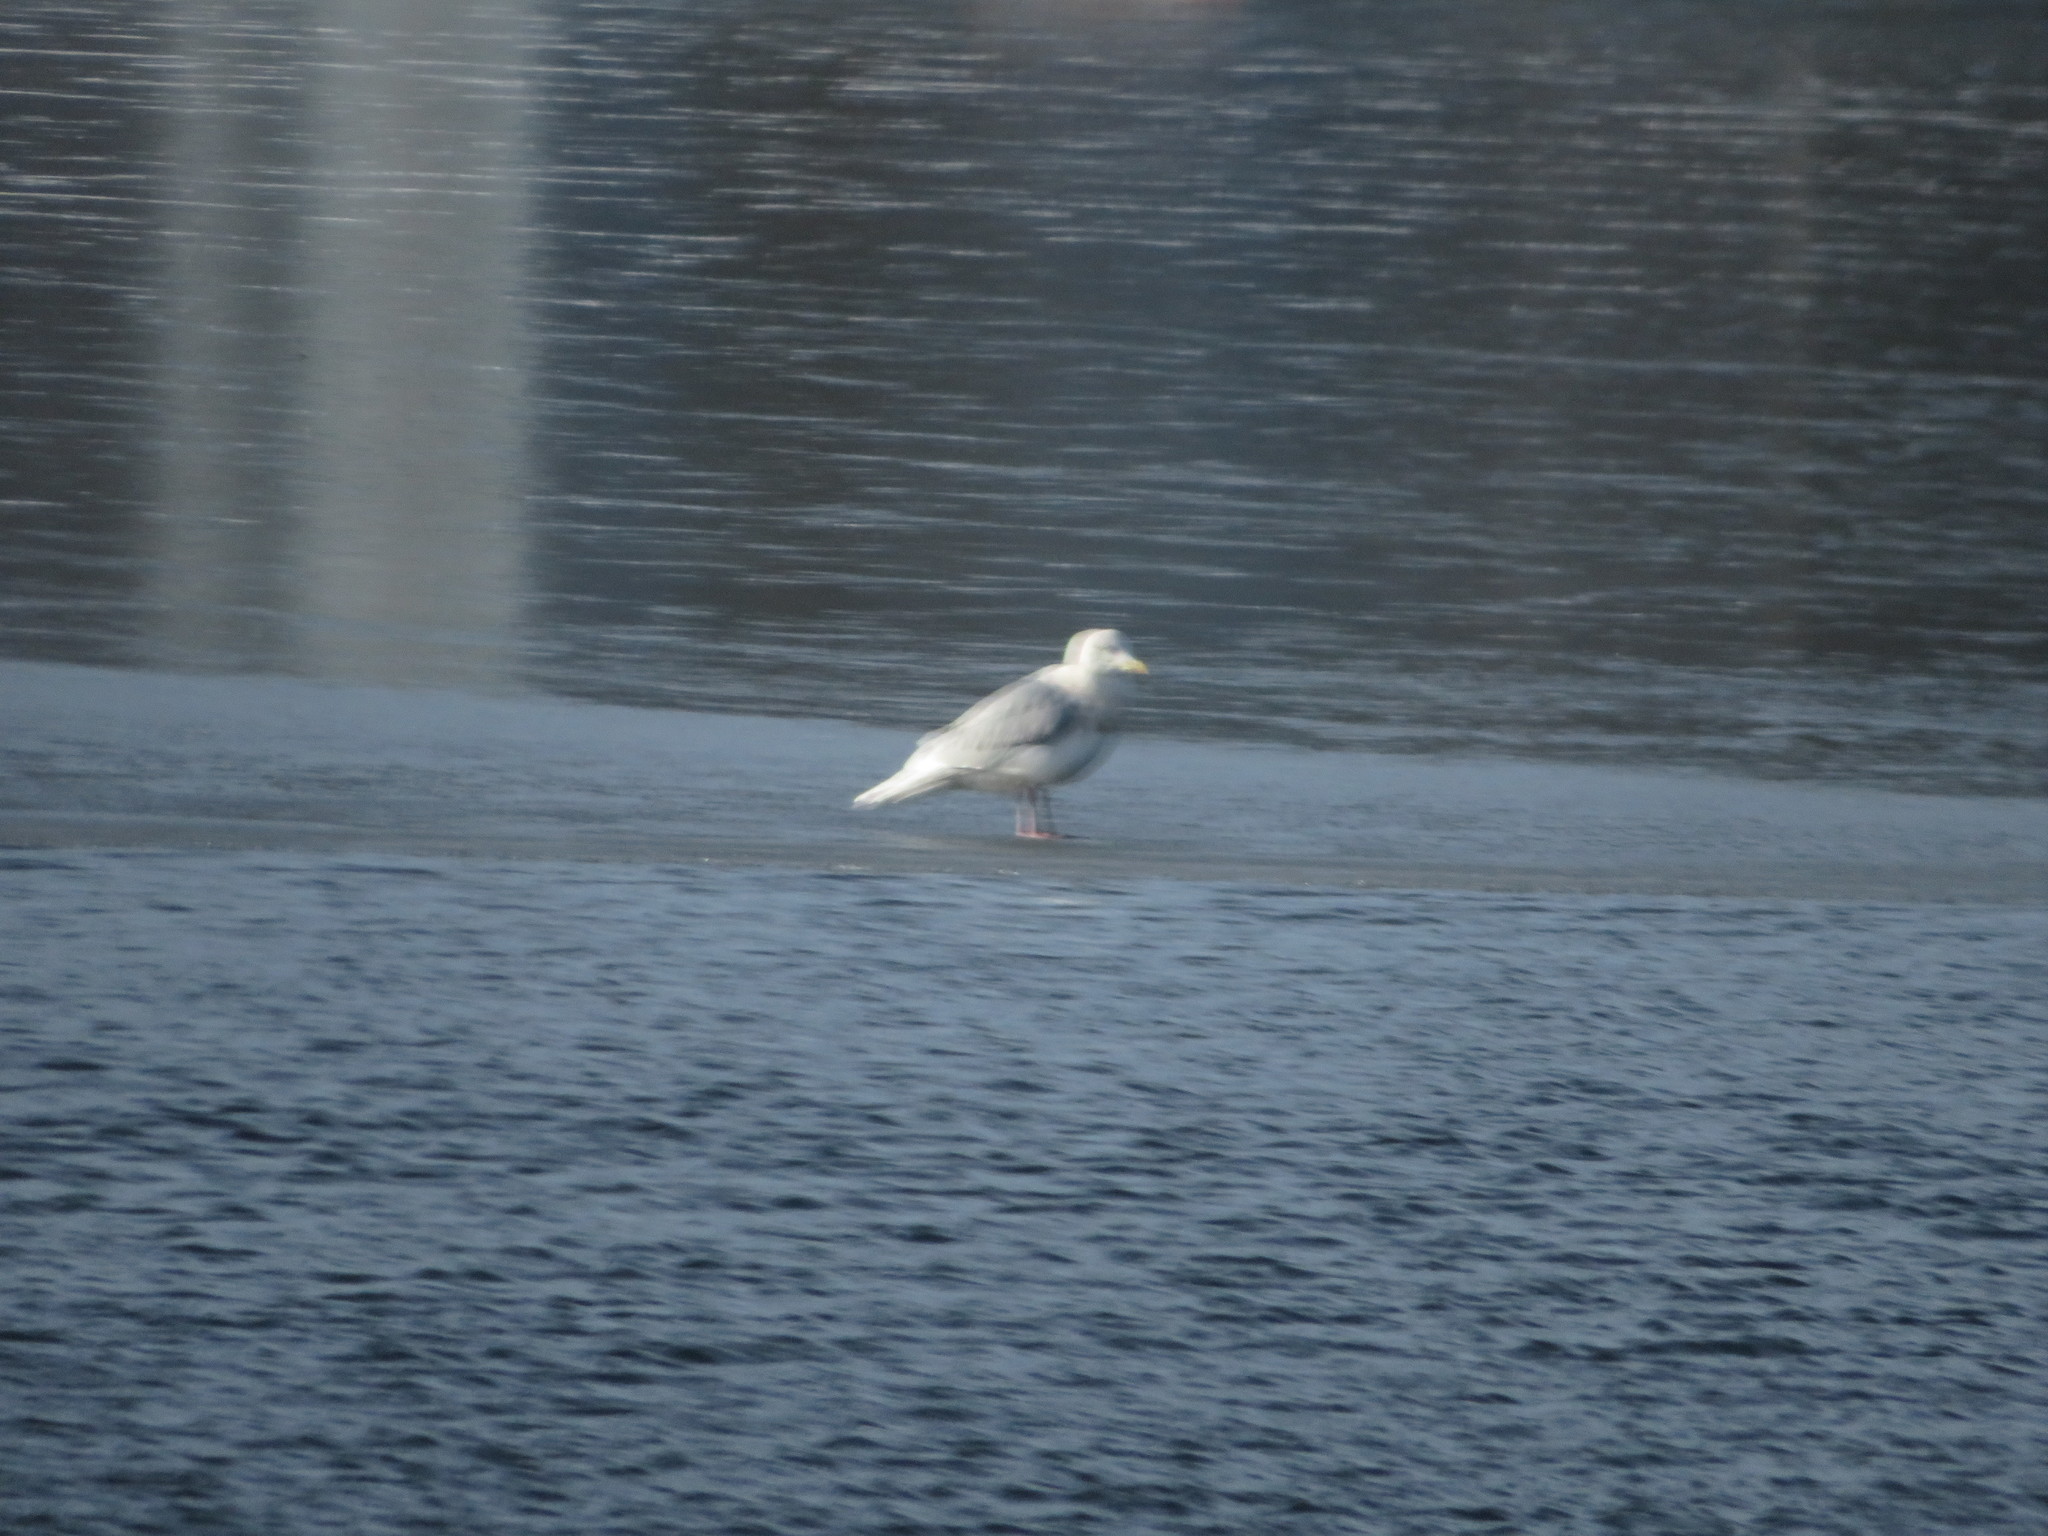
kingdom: Animalia
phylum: Chordata
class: Aves
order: Charadriiformes
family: Laridae
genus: Larus
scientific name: Larus glaucoides
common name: Iceland gull
